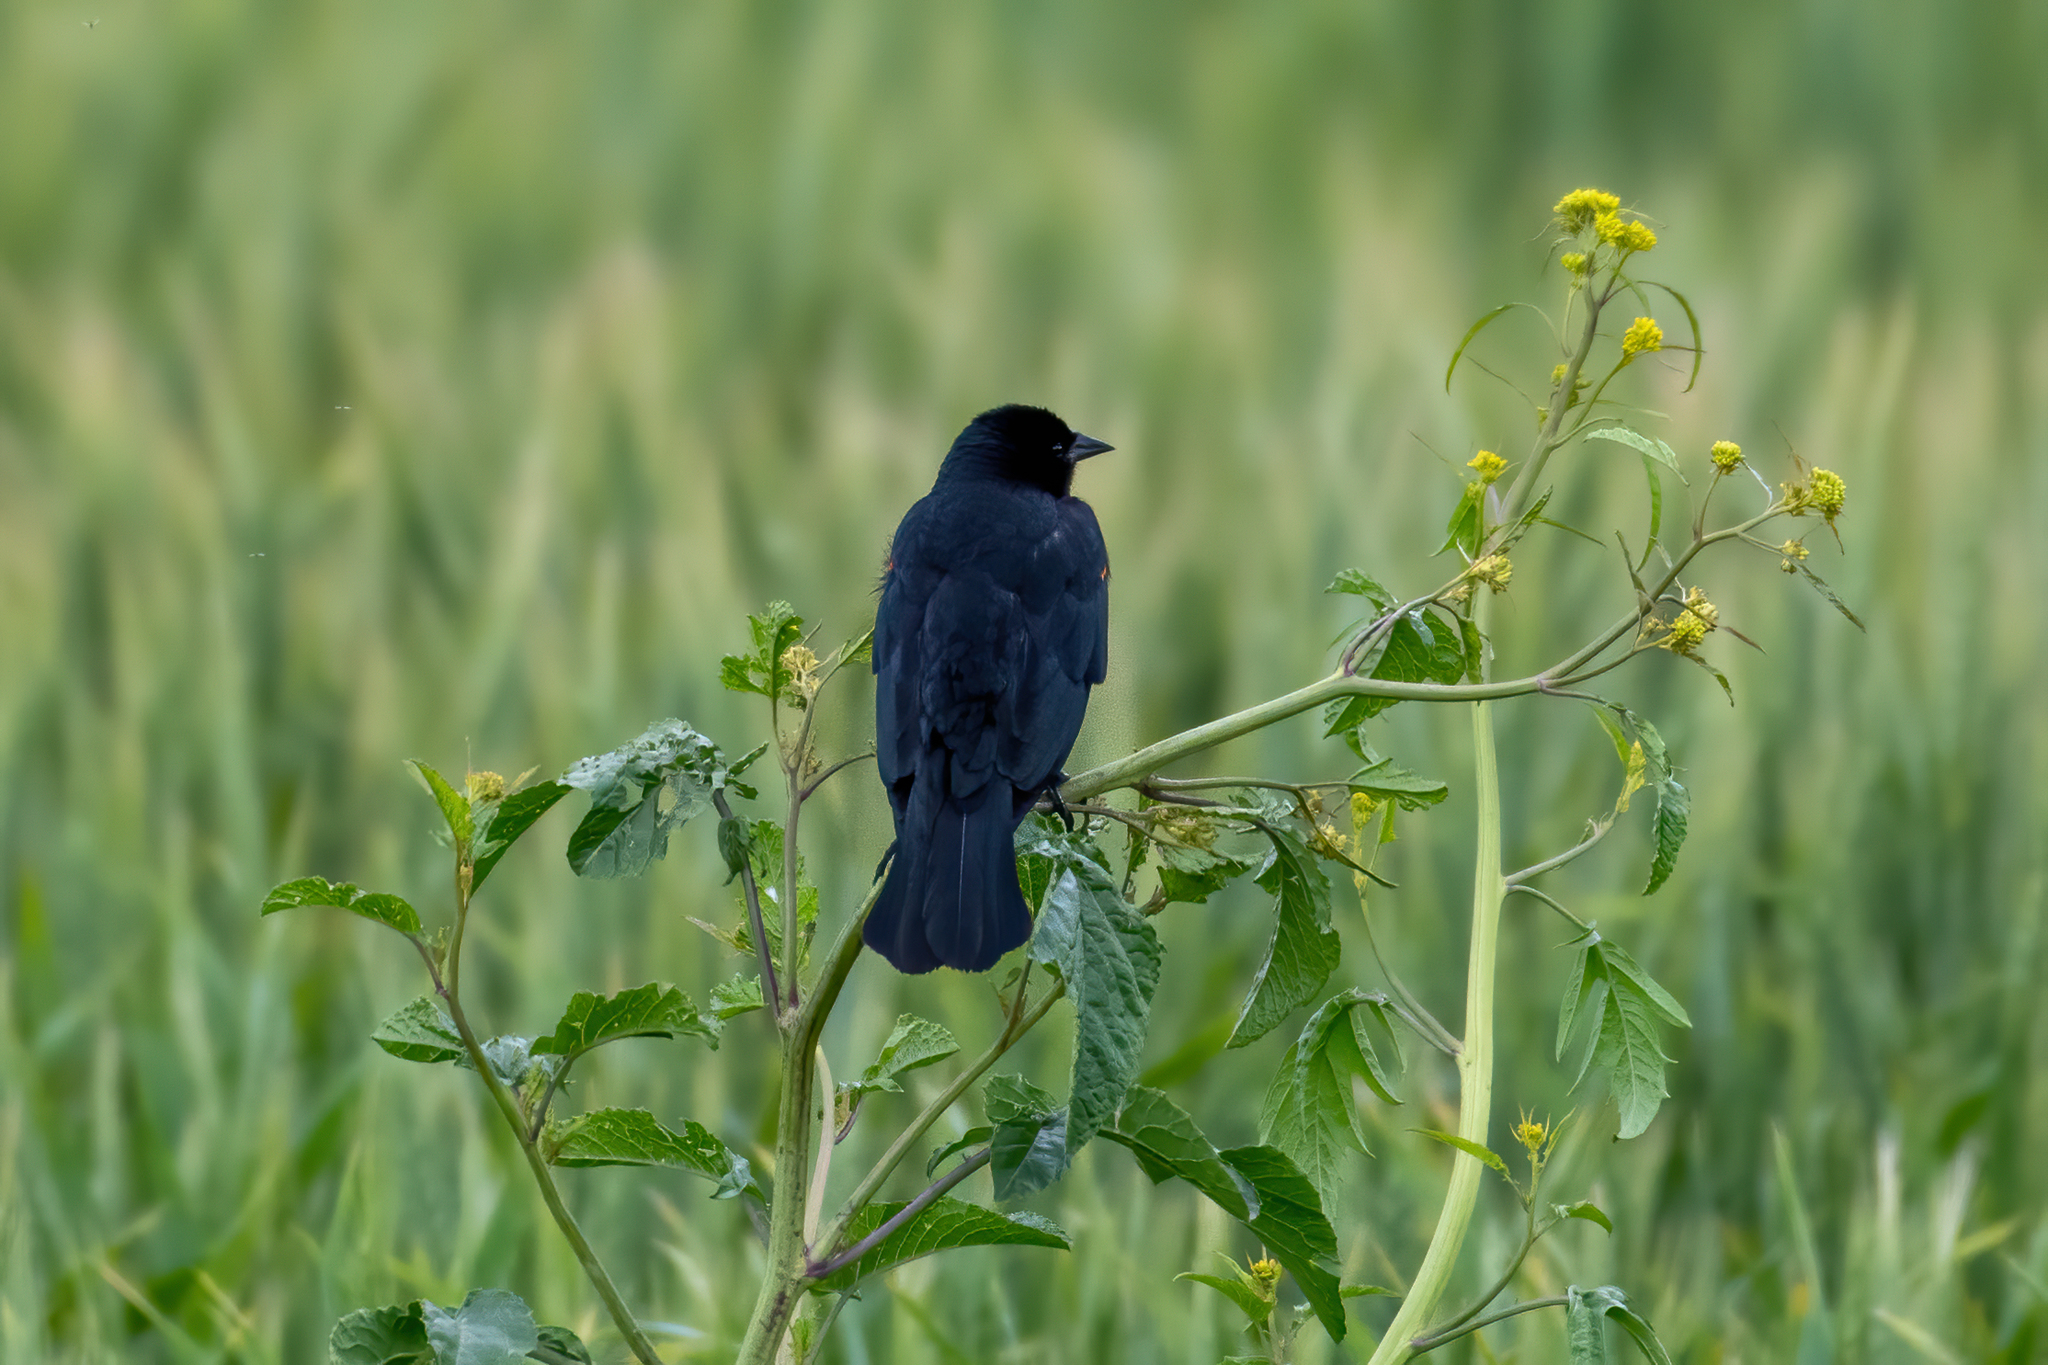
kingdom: Animalia
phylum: Chordata
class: Aves
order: Passeriformes
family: Icteridae
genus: Agelaius
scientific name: Agelaius phoeniceus
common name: Red-winged blackbird
